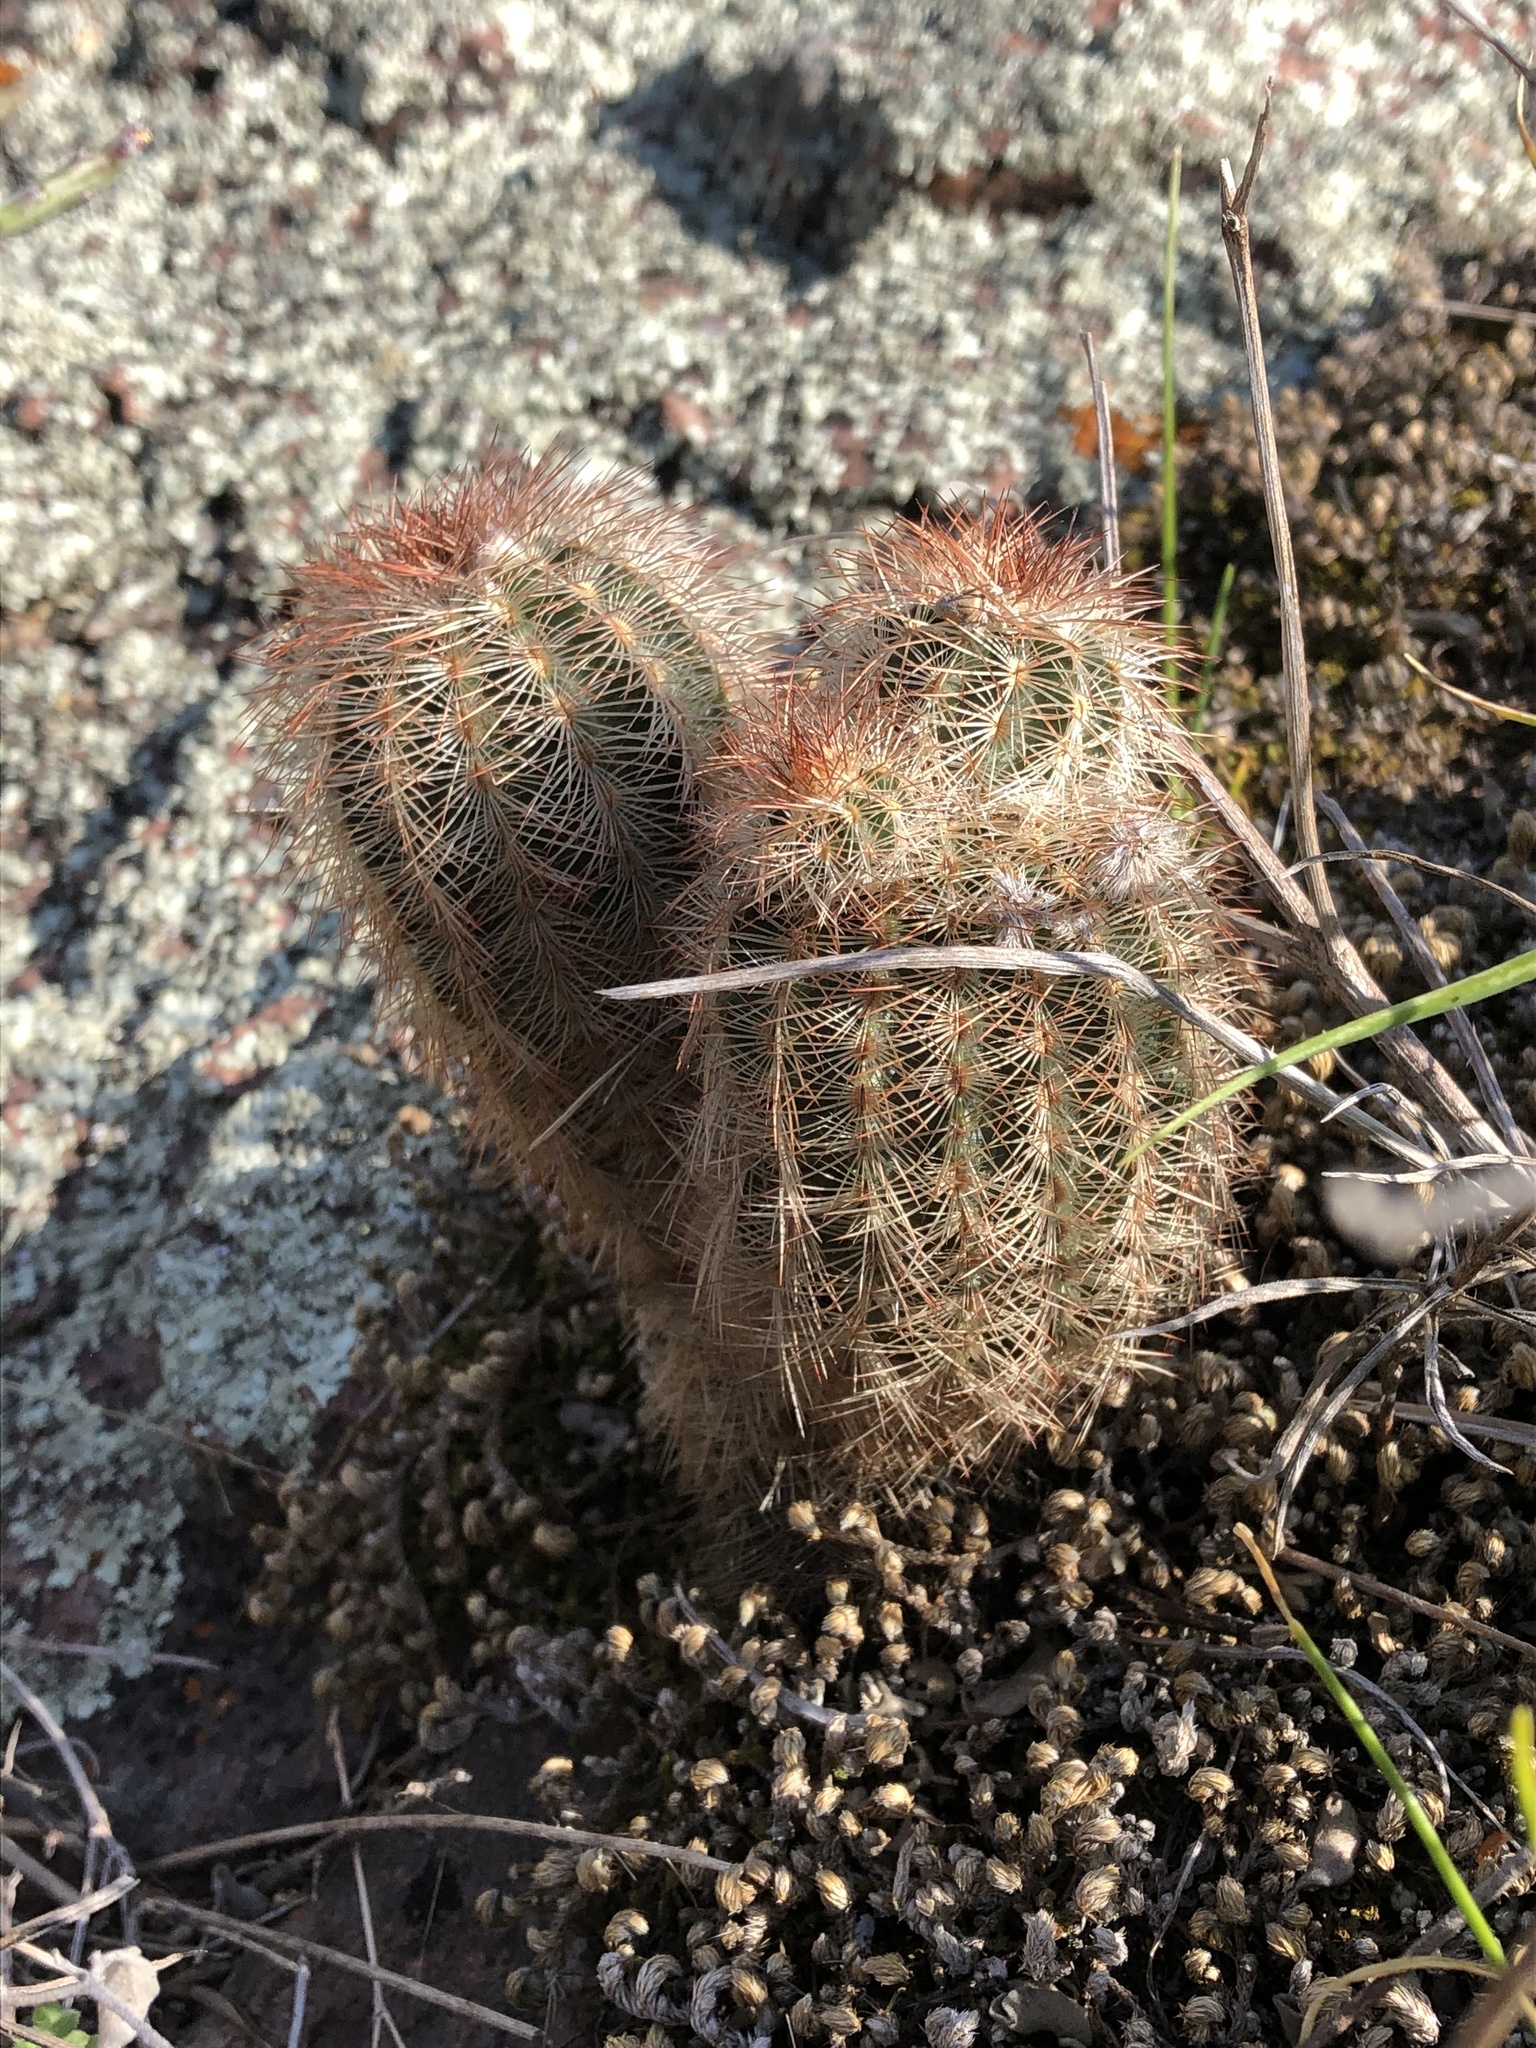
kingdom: Plantae
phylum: Tracheophyta
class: Magnoliopsida
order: Caryophyllales
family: Cactaceae
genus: Echinocereus
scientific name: Echinocereus reichenbachii
